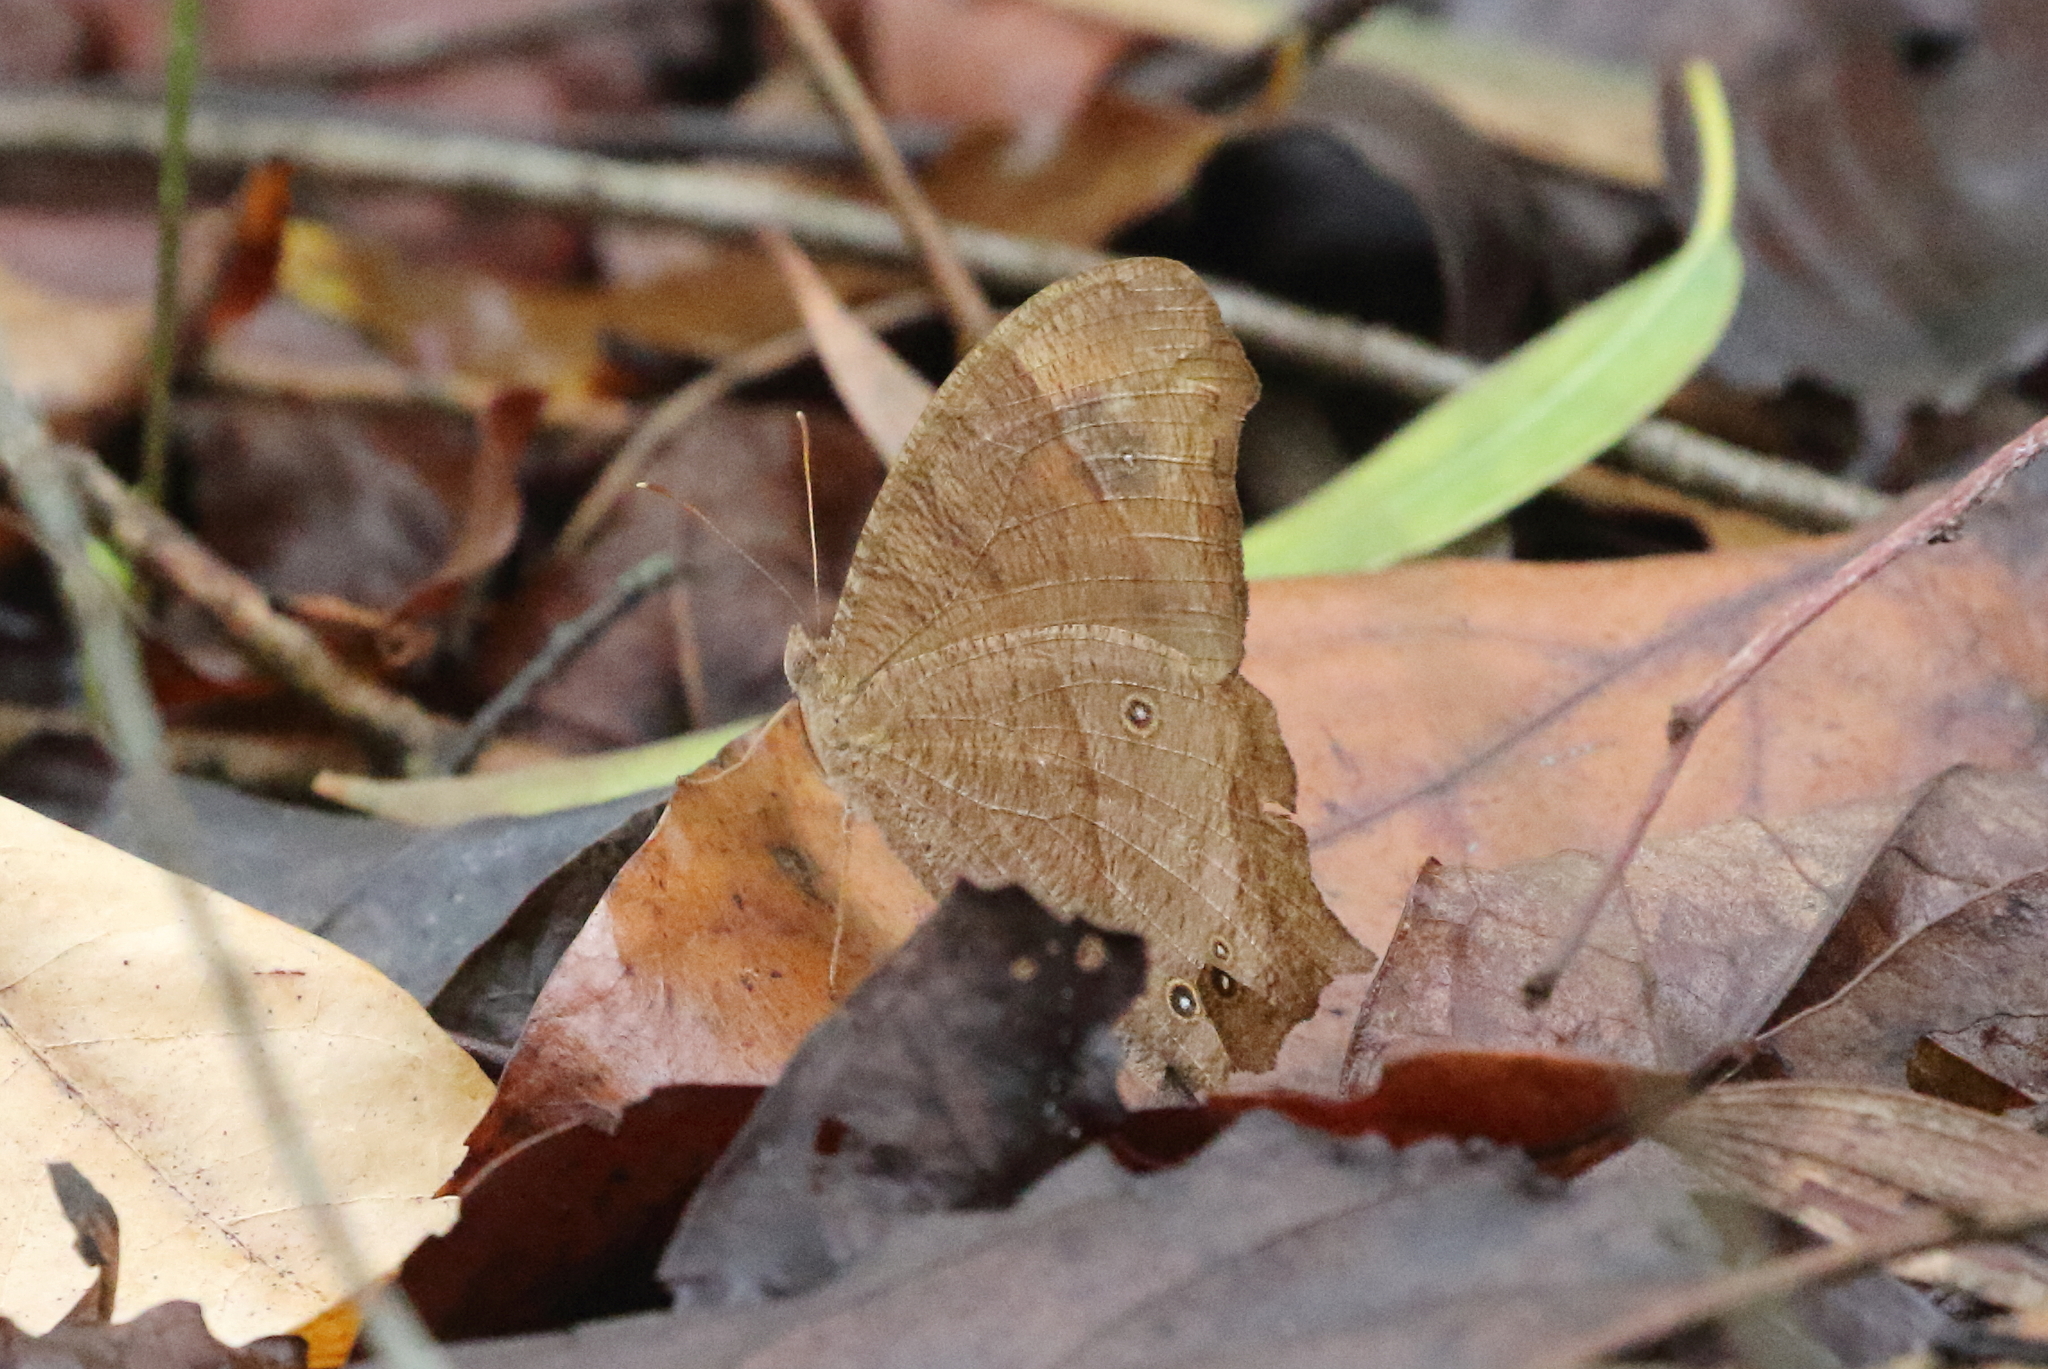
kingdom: Animalia
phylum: Arthropoda
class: Insecta
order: Lepidoptera
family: Nymphalidae
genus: Melanitis
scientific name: Melanitis leda
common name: Twilight brown
